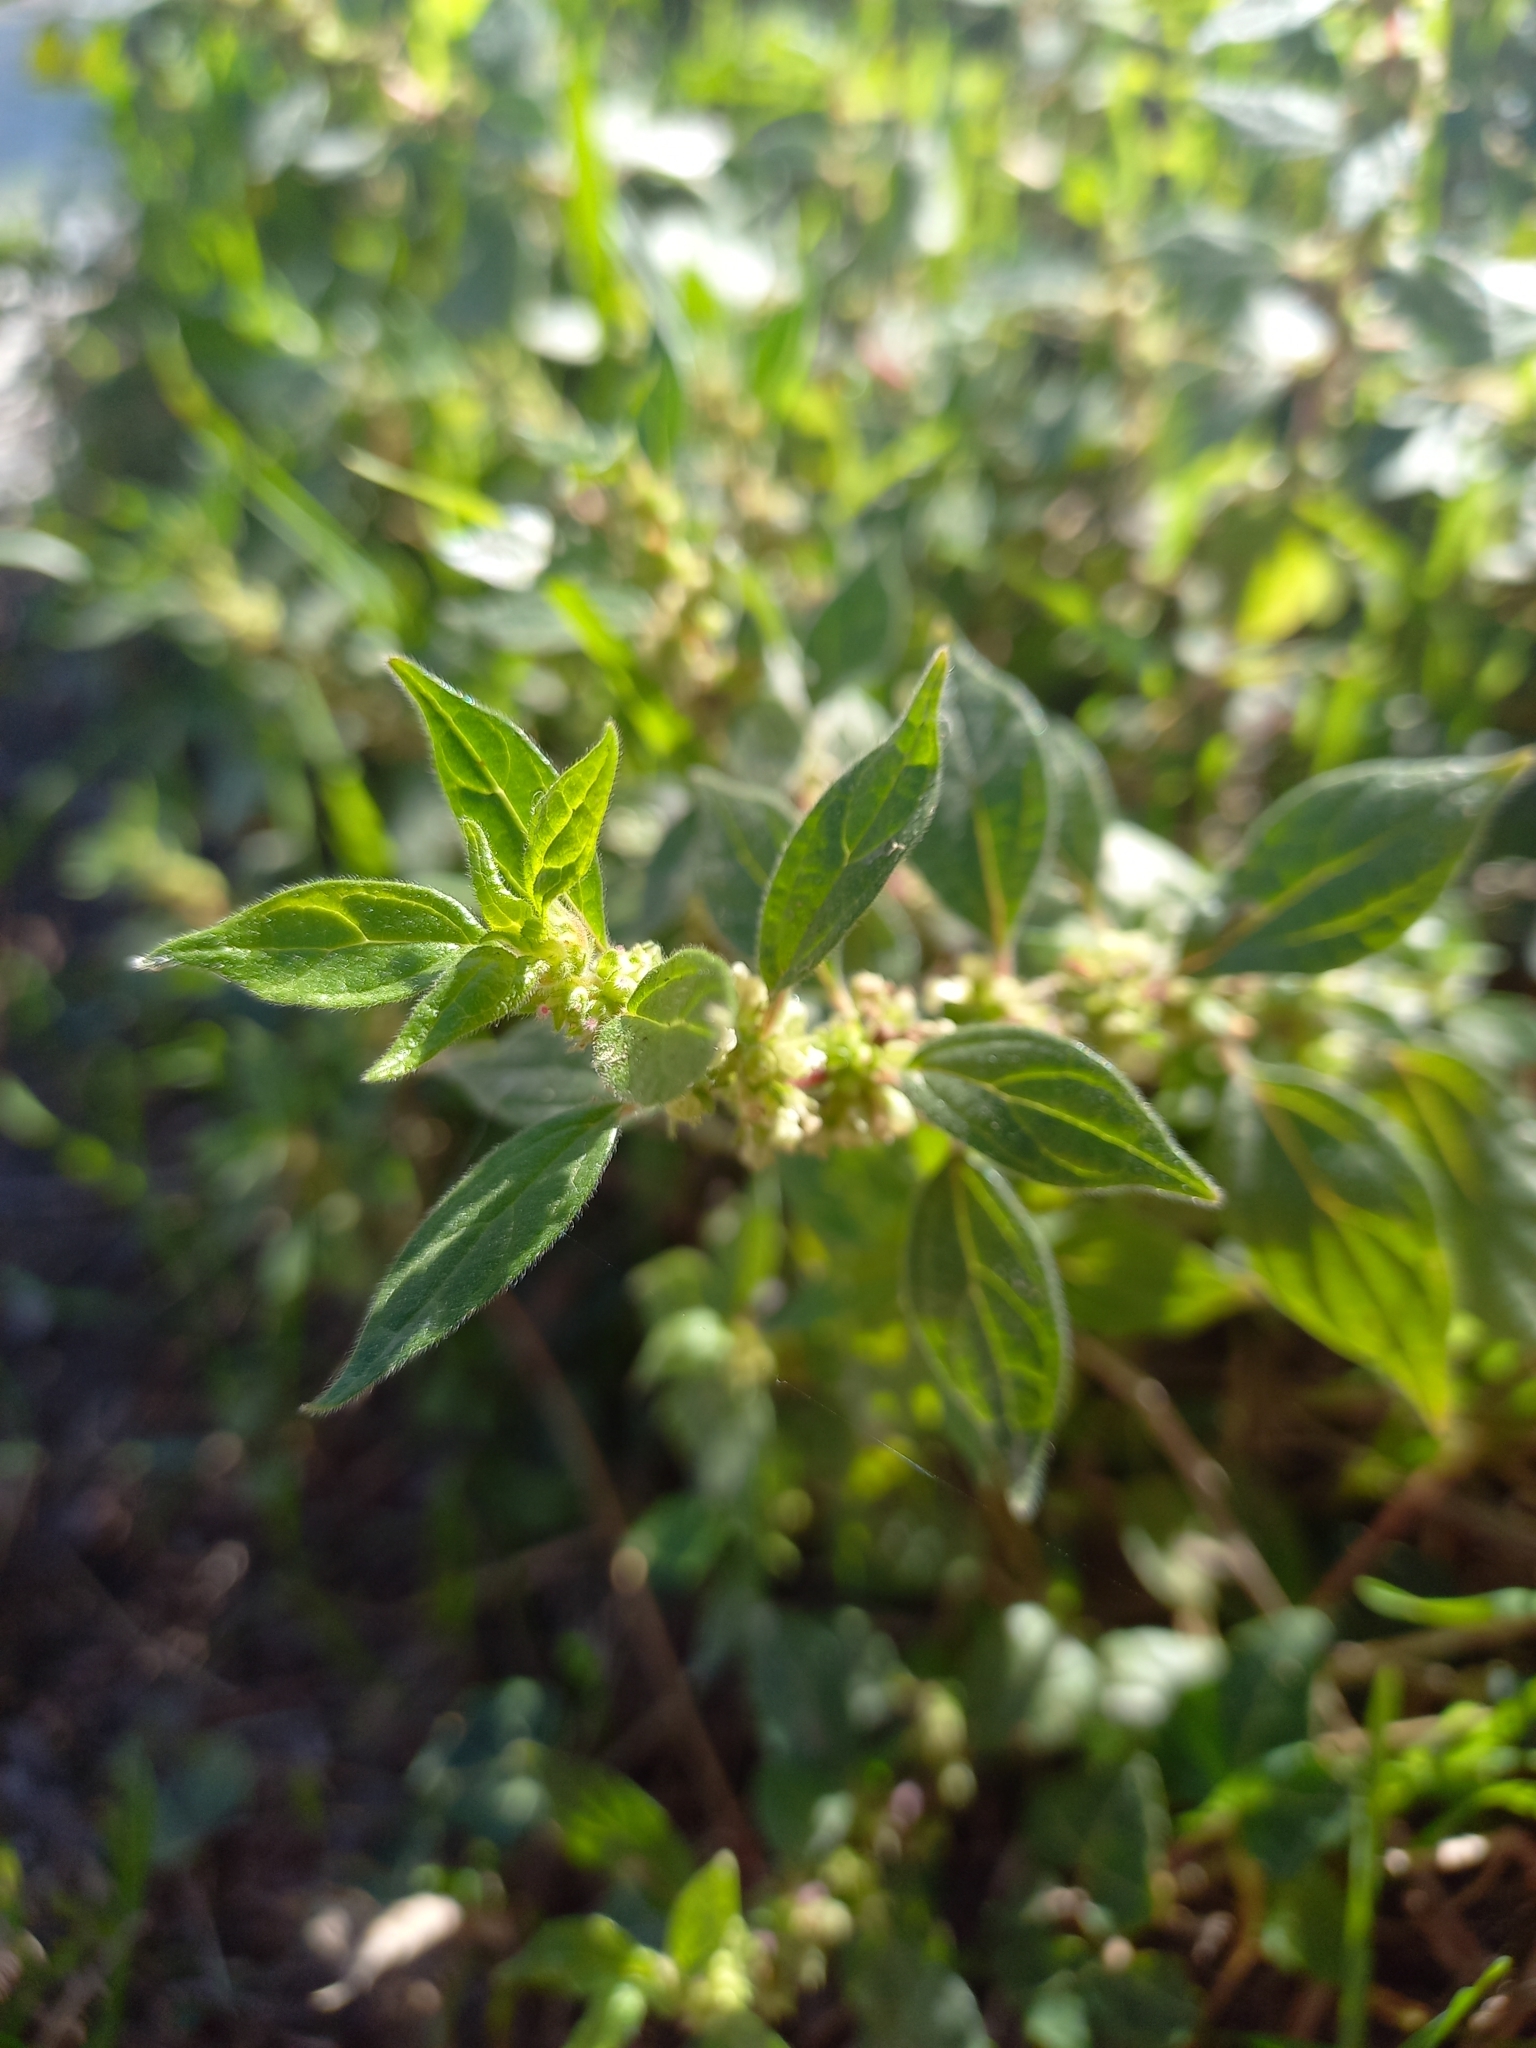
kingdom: Plantae
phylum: Tracheophyta
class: Magnoliopsida
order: Rosales
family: Urticaceae
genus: Parietaria
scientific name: Parietaria judaica
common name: Pellitory-of-the-wall
